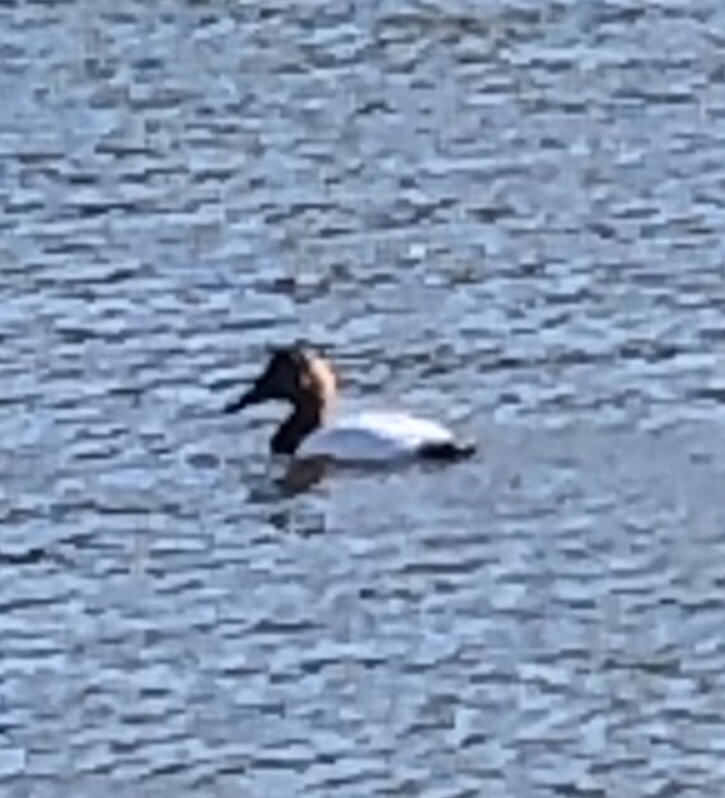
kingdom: Animalia
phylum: Chordata
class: Aves
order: Anseriformes
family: Anatidae
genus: Aythya
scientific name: Aythya valisineria
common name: Canvasback
